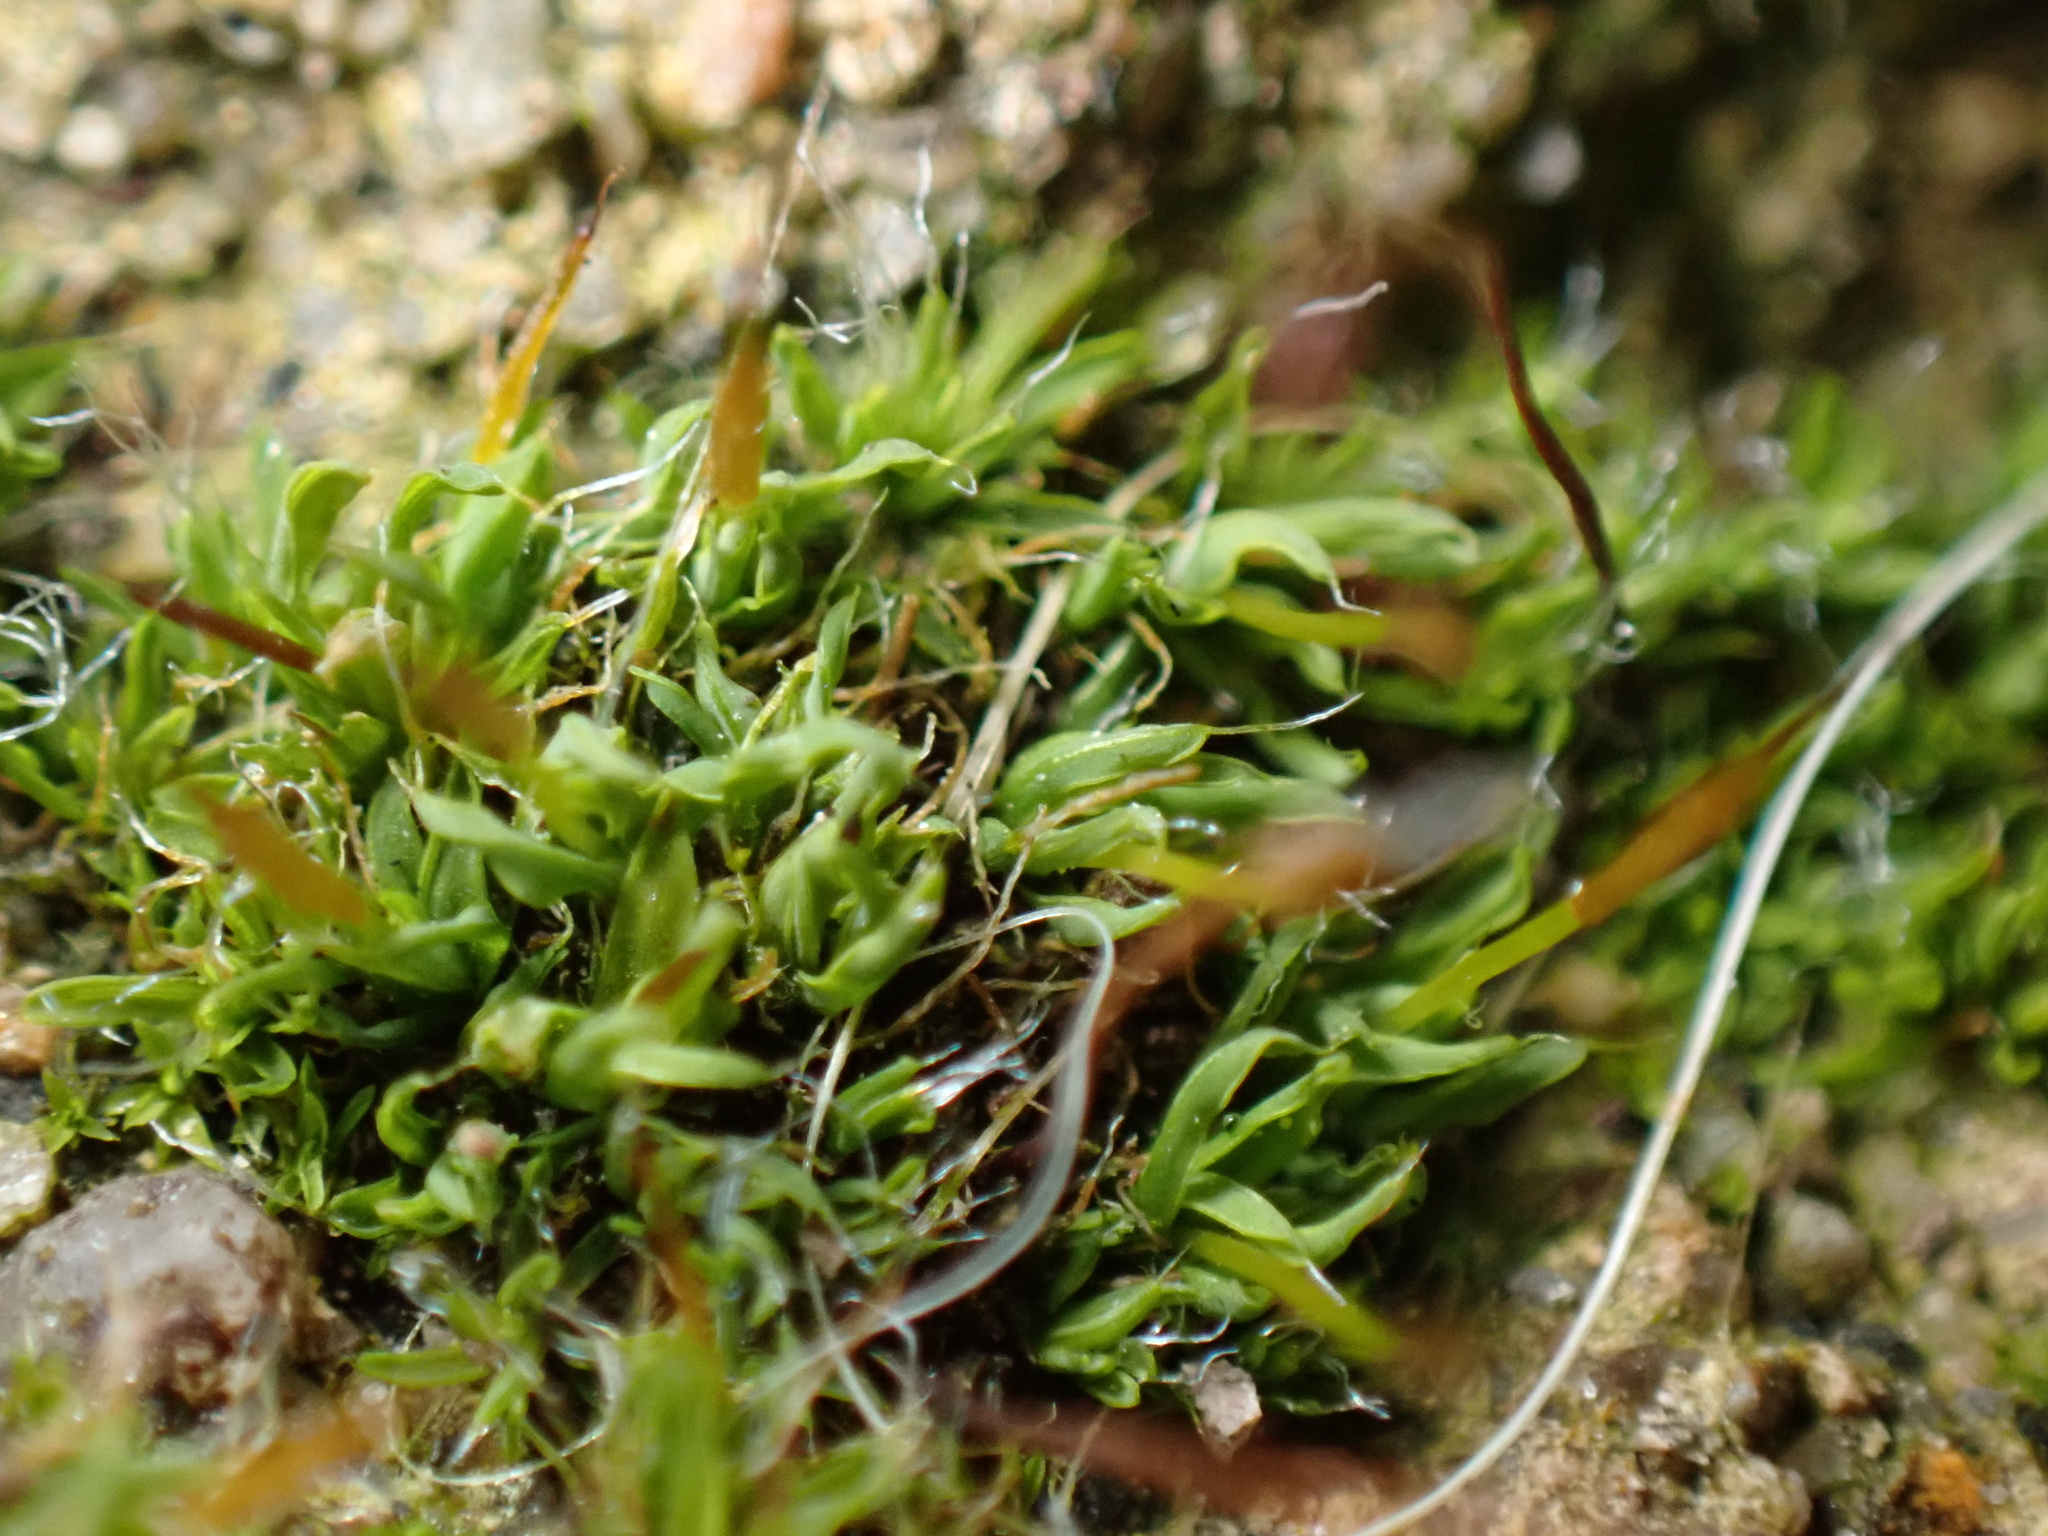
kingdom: Plantae
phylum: Bryophyta
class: Bryopsida
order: Pottiales
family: Pottiaceae
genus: Tortula
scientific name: Tortula muralis
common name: Wall screw-moss
